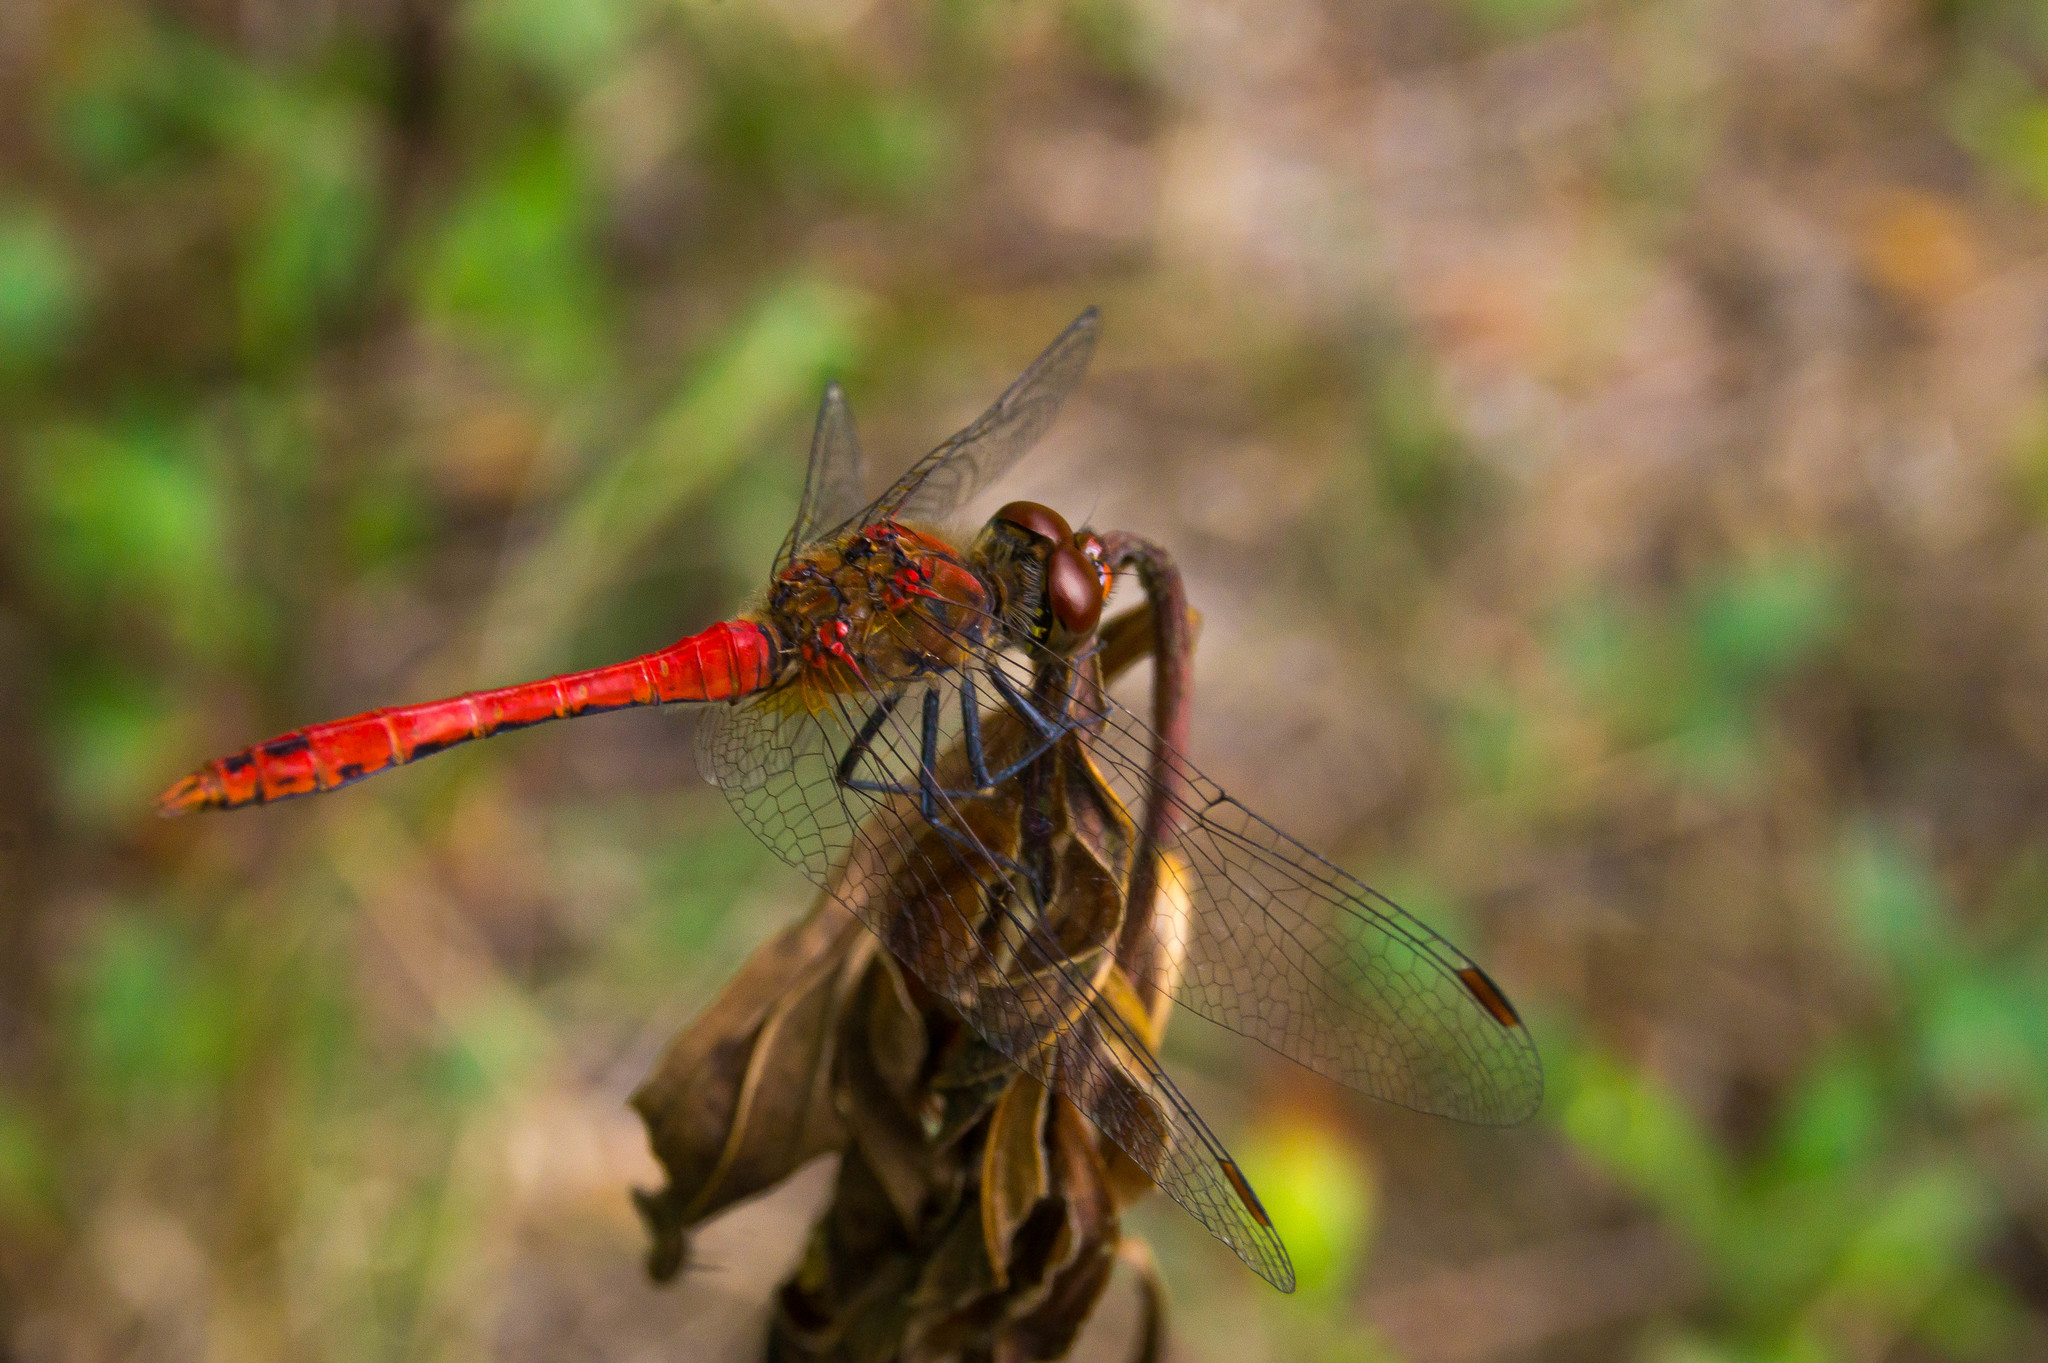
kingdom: Animalia
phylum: Arthropoda
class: Insecta
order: Odonata
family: Libellulidae
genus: Sympetrum
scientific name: Sympetrum sanguineum
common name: Ruddy darter
